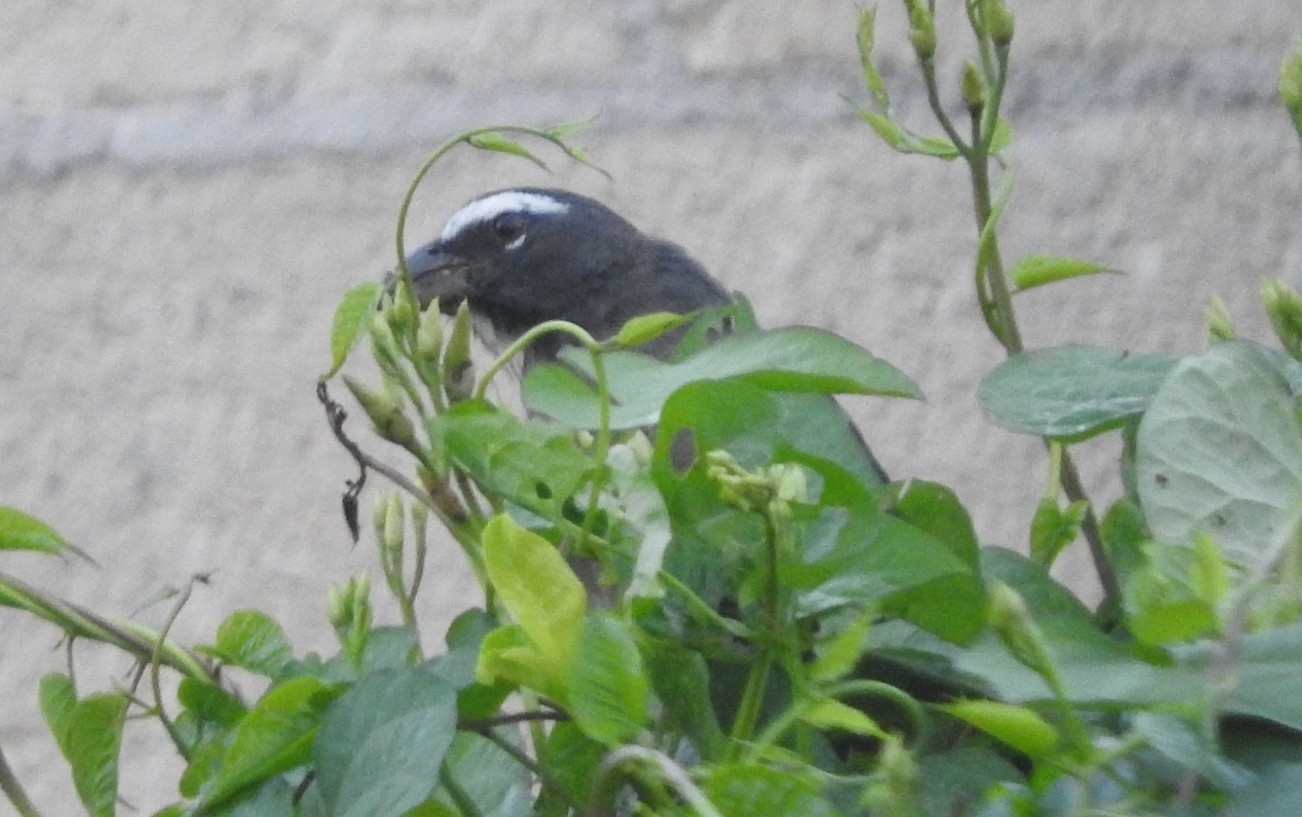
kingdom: Animalia
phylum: Chordata
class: Aves
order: Passeriformes
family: Thraupidae
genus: Saltator
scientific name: Saltator grandis
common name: Cinnamon-bellied saltator
